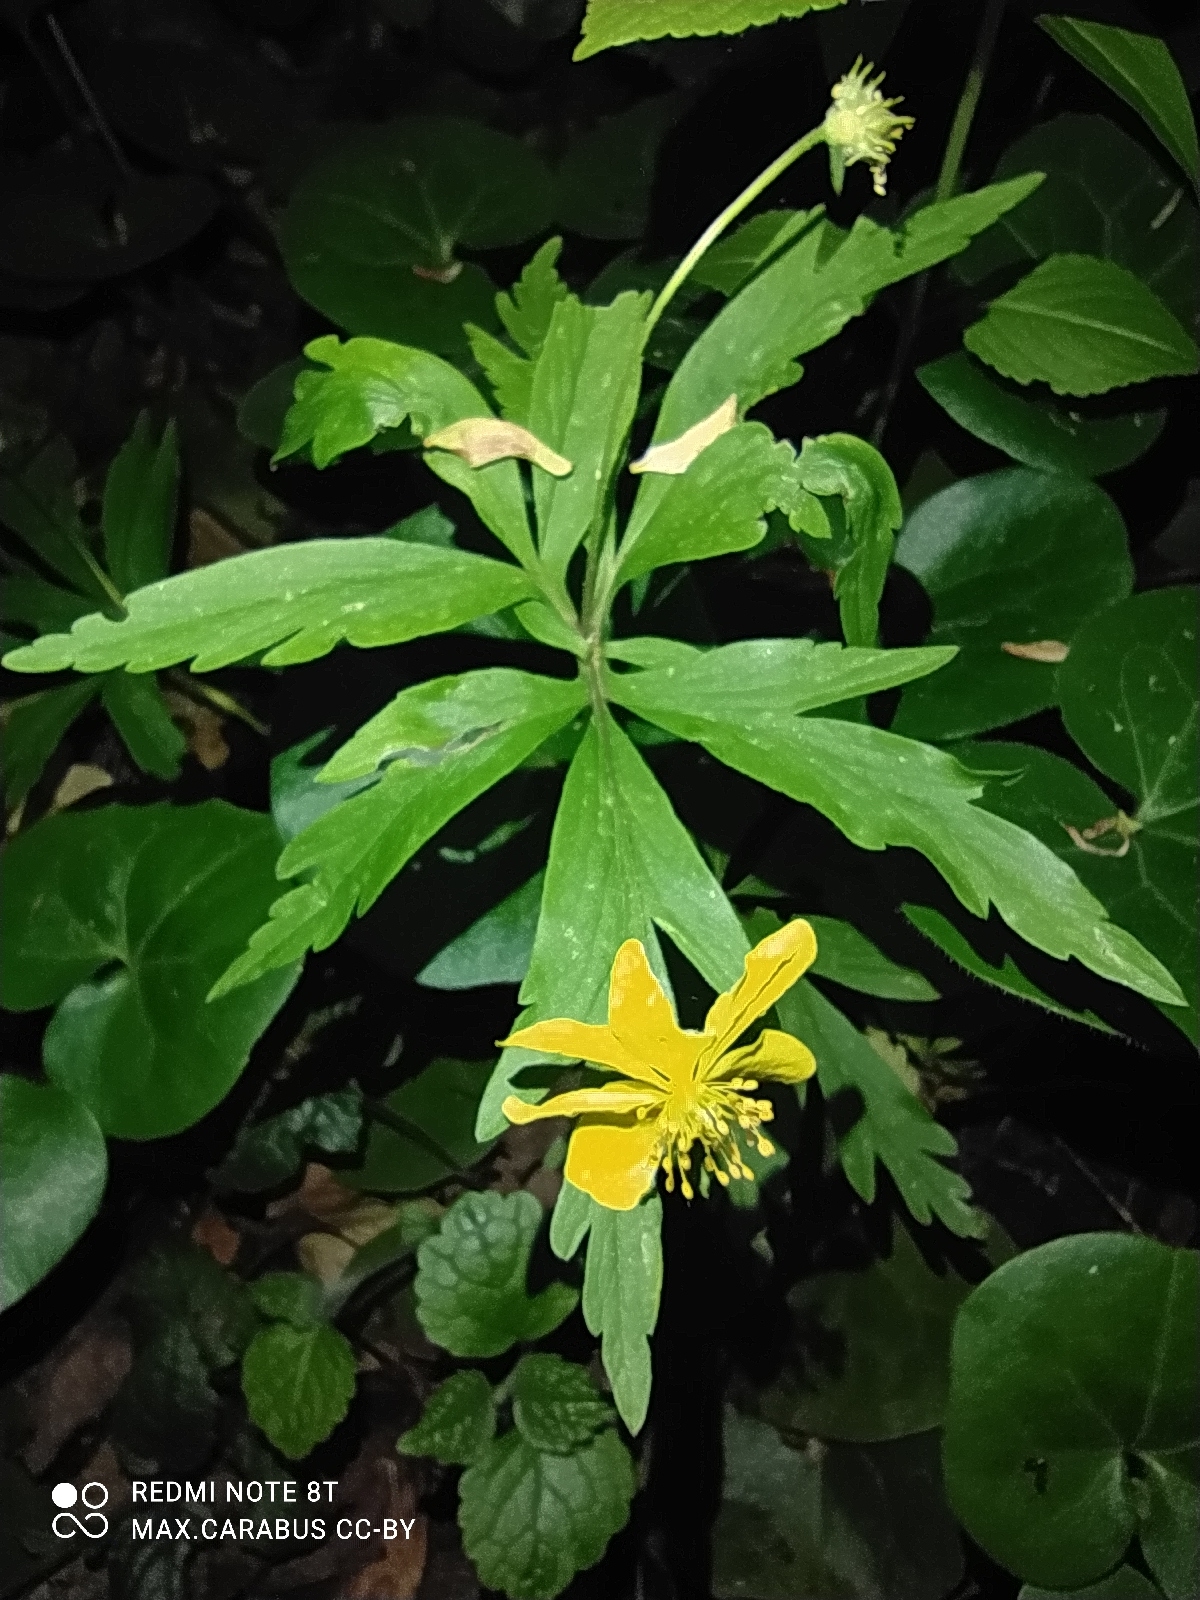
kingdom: Plantae
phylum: Tracheophyta
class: Magnoliopsida
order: Ranunculales
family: Ranunculaceae
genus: Anemone
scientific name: Anemone ranunculoides
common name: Yellow anemone
